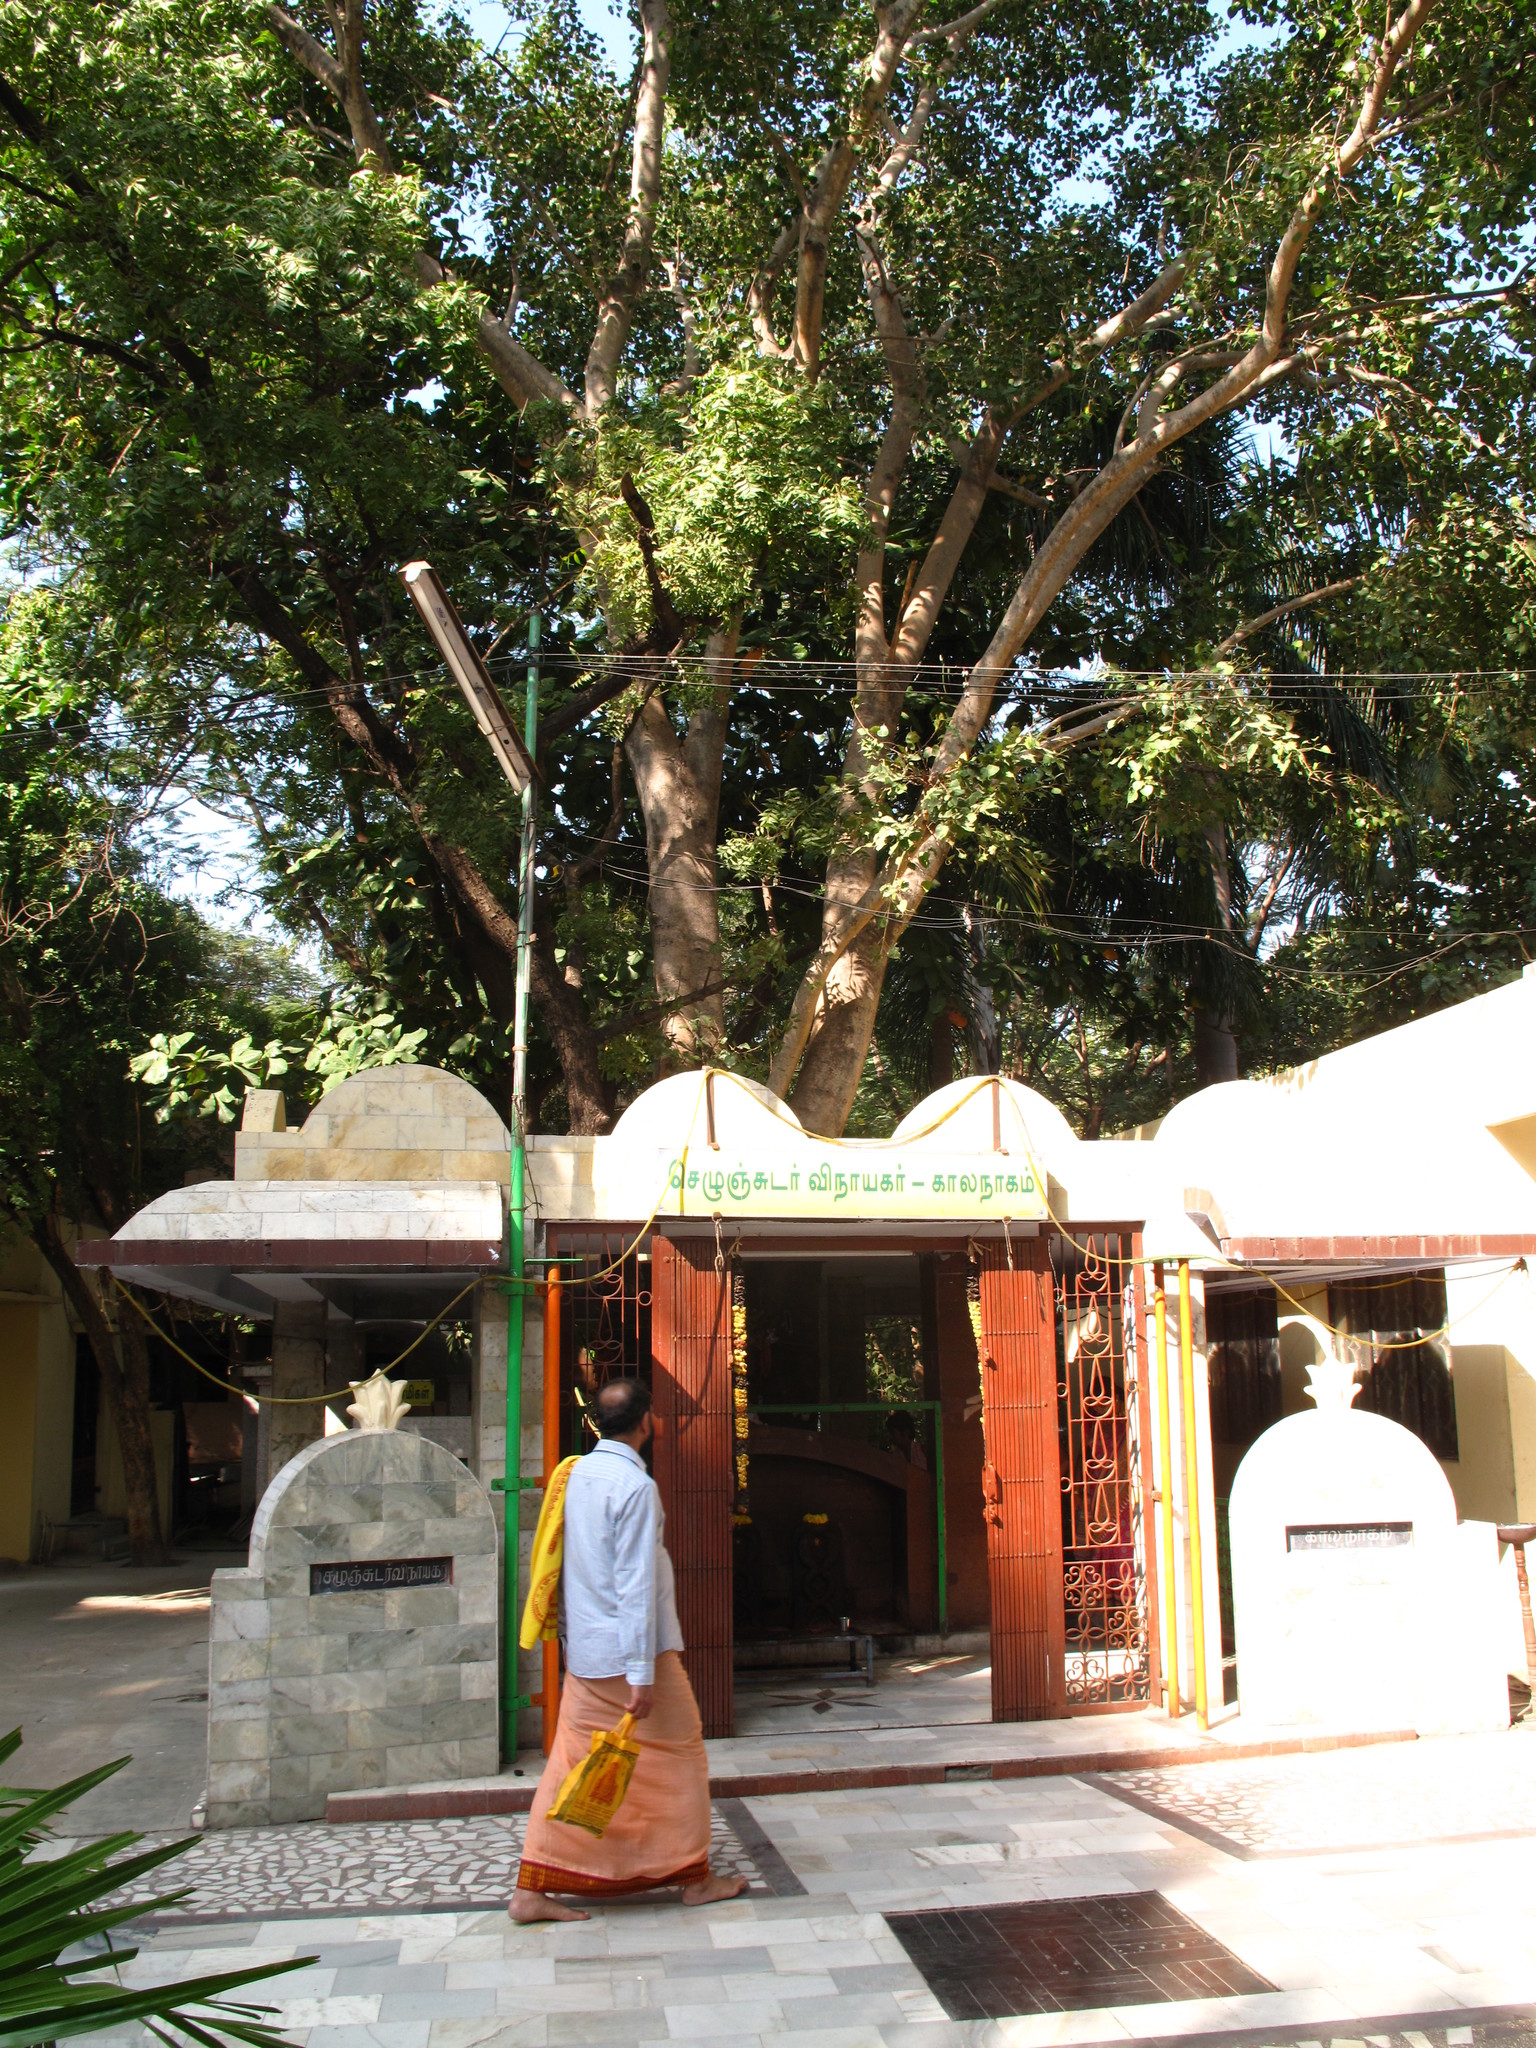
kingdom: Plantae
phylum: Tracheophyta
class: Magnoliopsida
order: Rosales
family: Moraceae
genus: Ficus
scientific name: Ficus religiosa
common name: Bodhi tree
